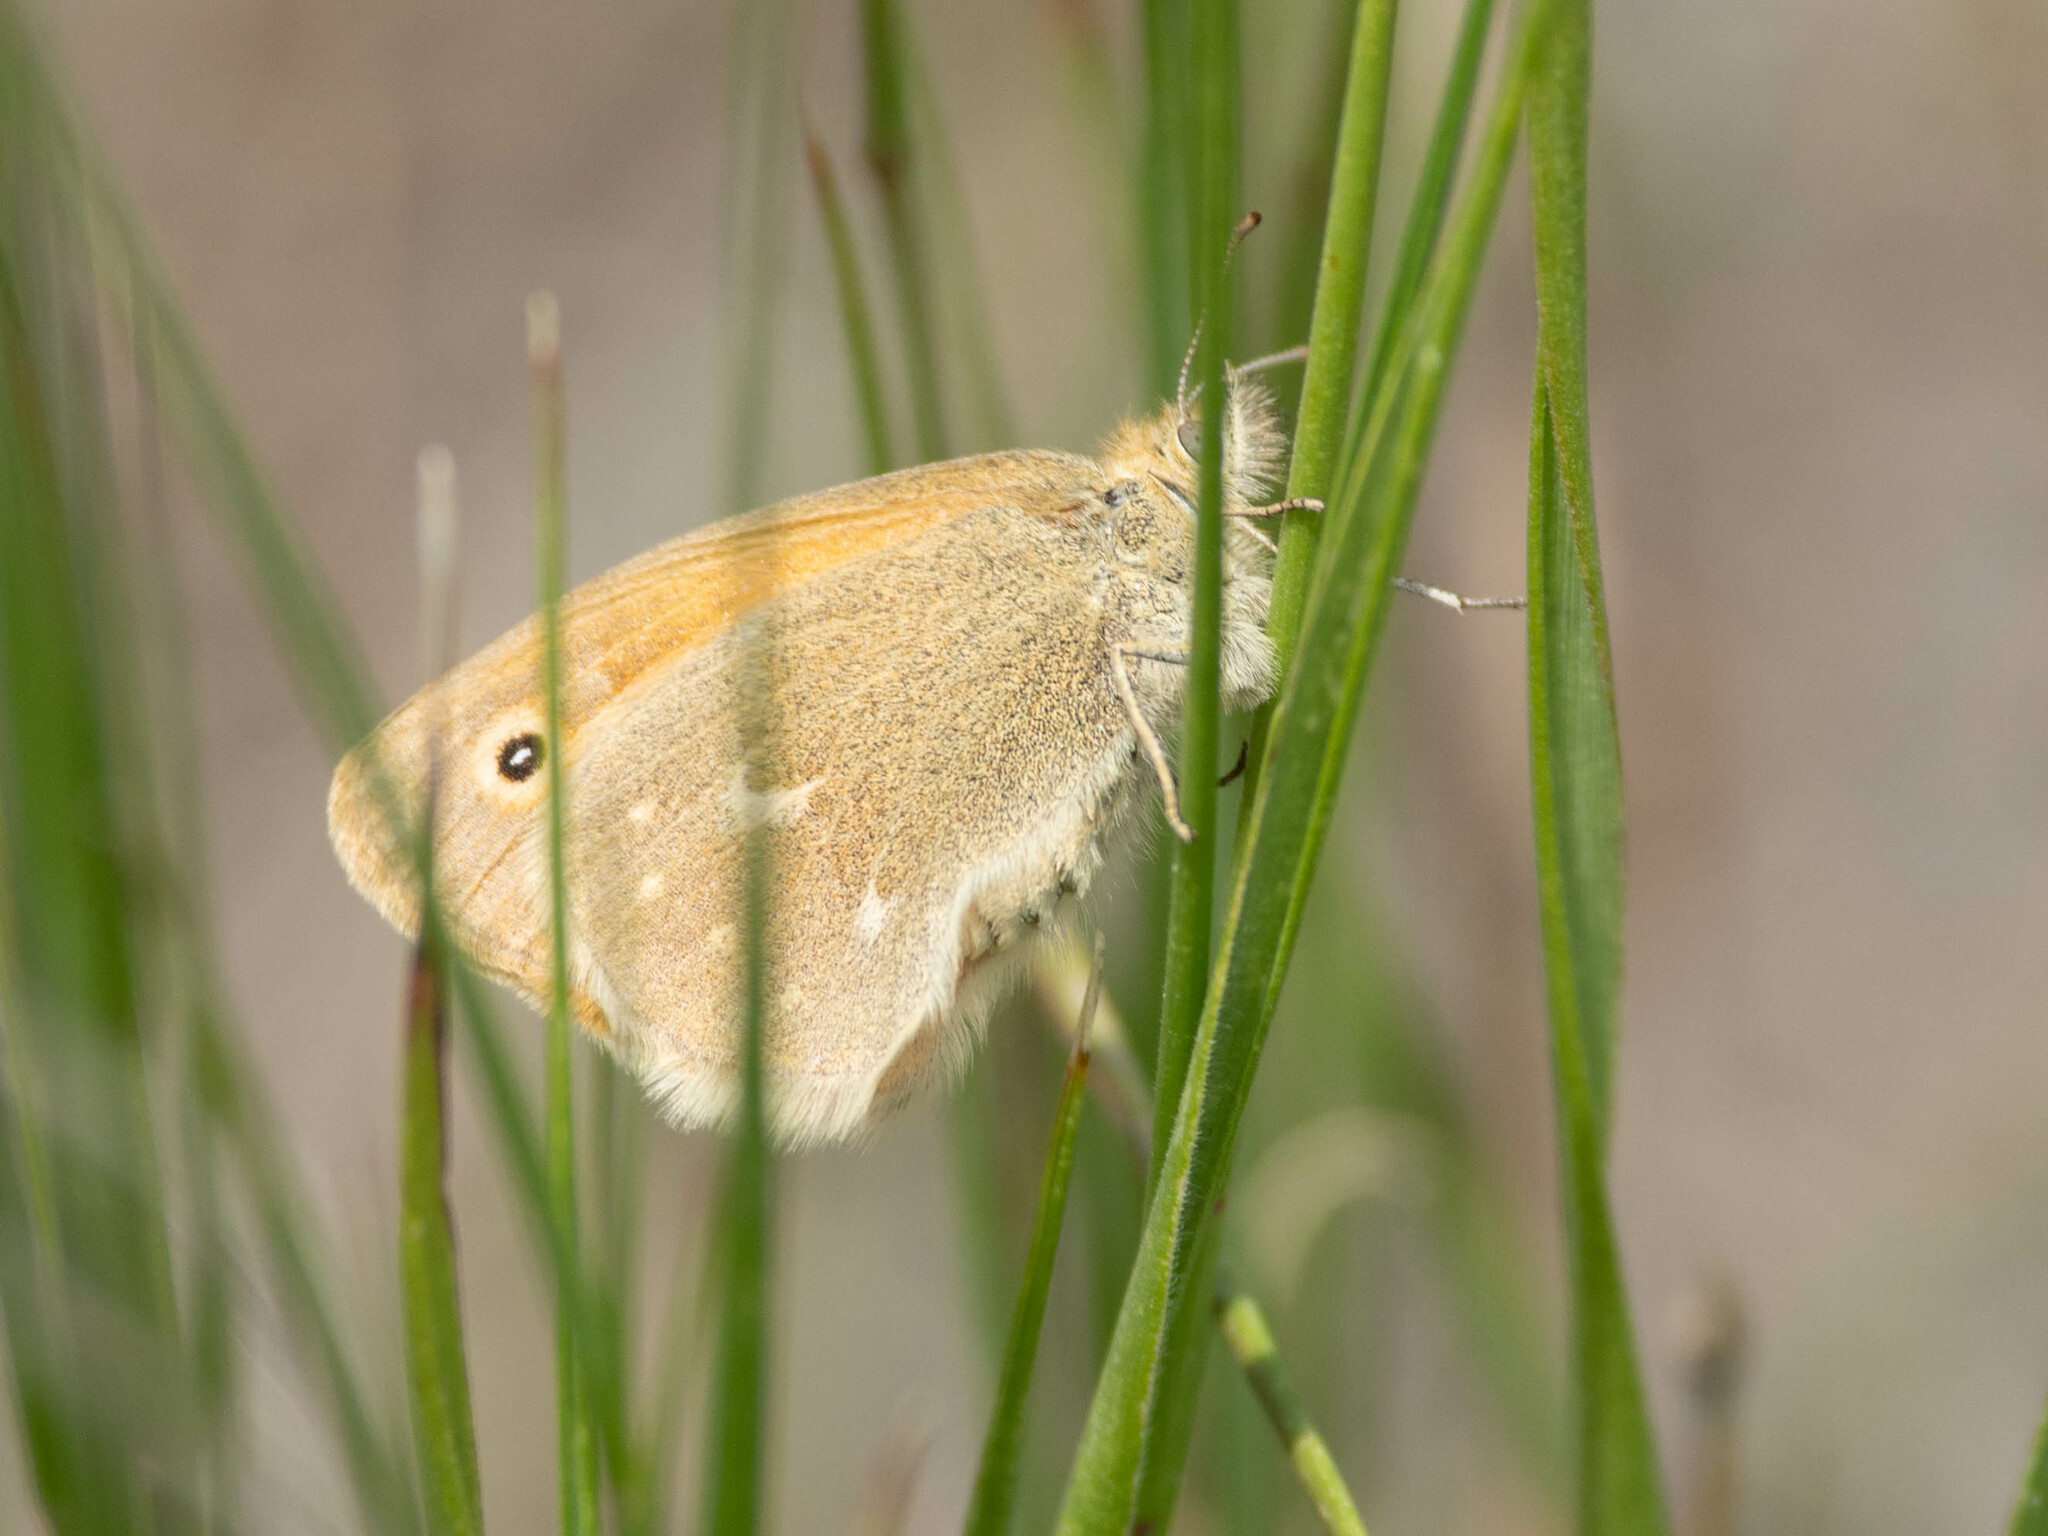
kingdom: Animalia
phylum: Arthropoda
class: Insecta
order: Lepidoptera
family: Nymphalidae
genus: Coenonympha
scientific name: Coenonympha california
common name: Common ringlet
